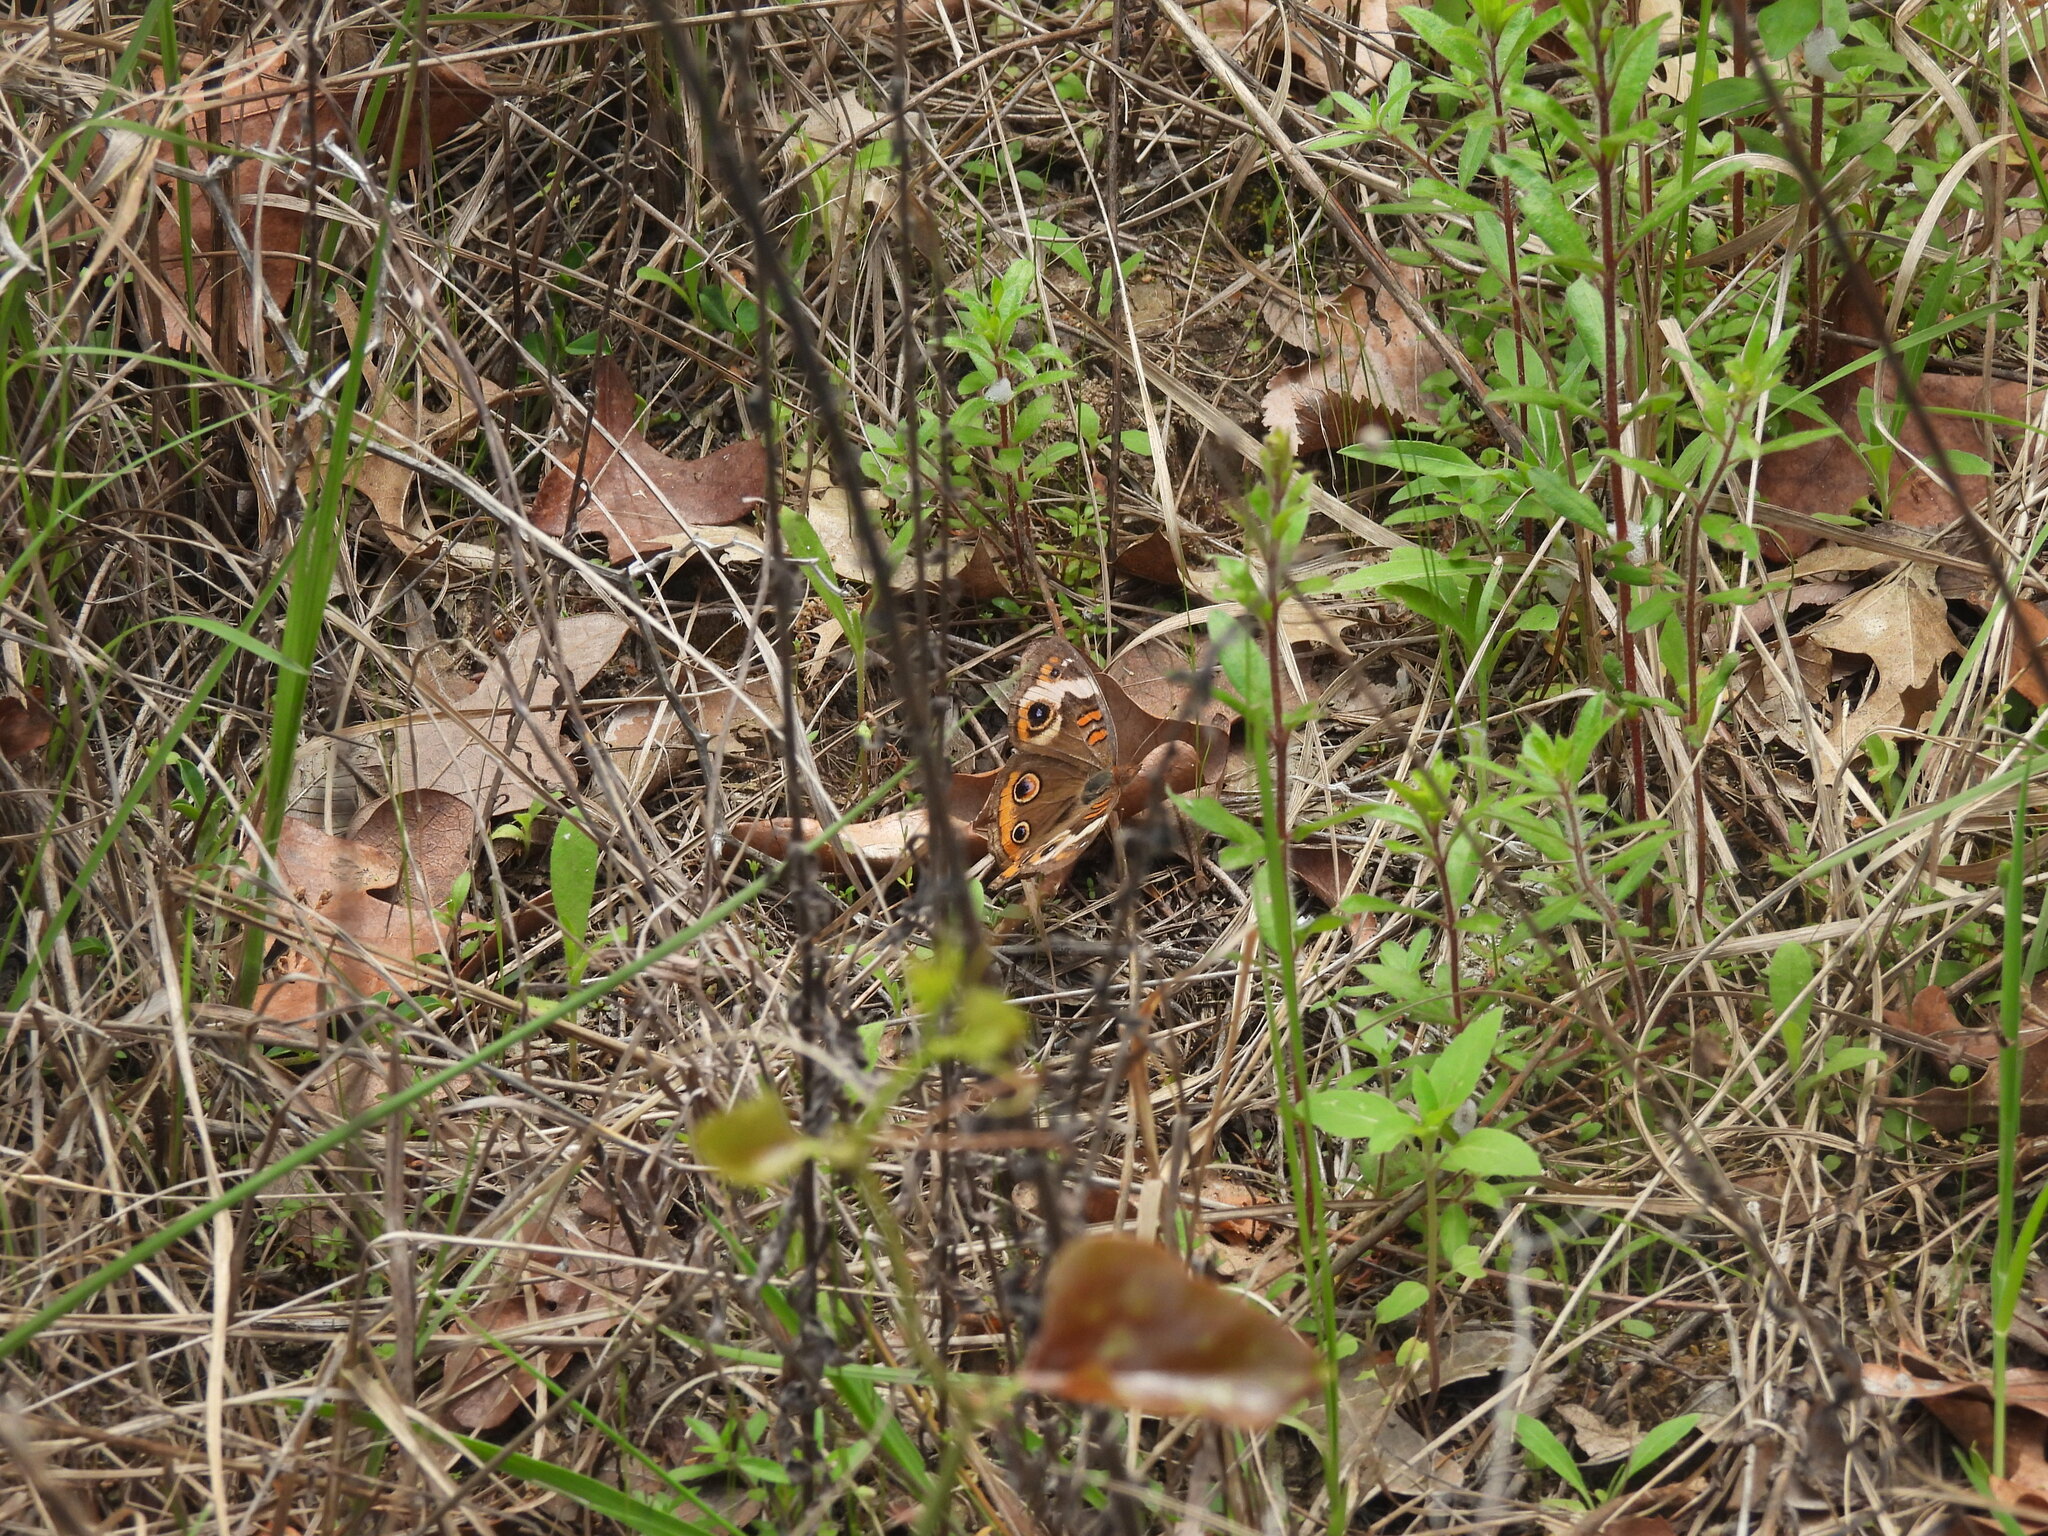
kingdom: Animalia
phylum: Arthropoda
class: Insecta
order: Lepidoptera
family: Nymphalidae
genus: Junonia
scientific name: Junonia coenia
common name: Common buckeye
